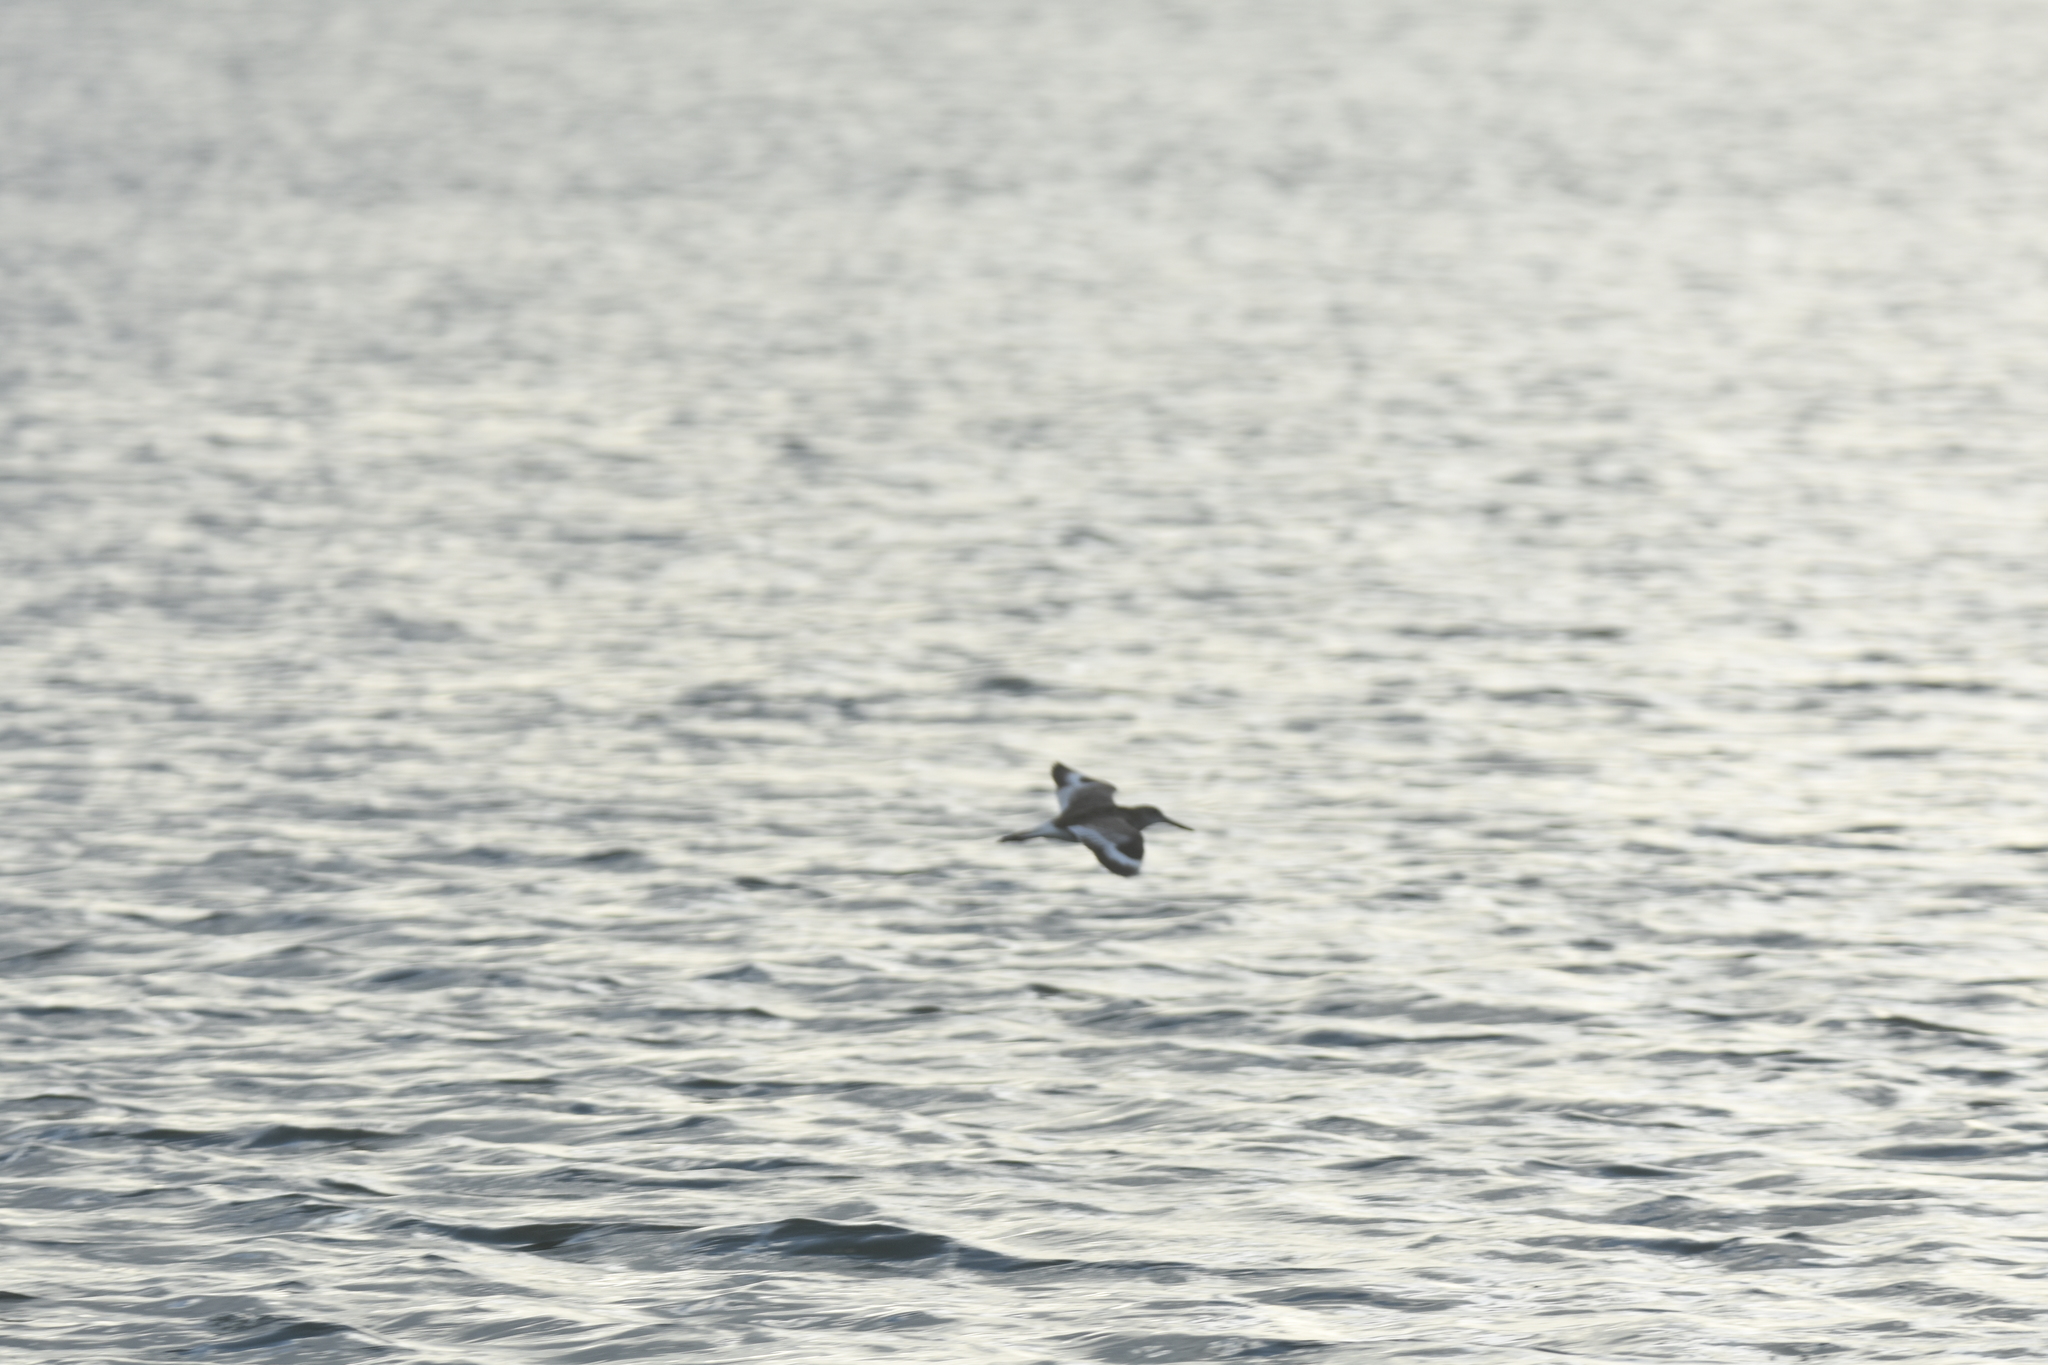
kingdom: Animalia
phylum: Chordata
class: Aves
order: Charadriiformes
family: Scolopacidae
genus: Tringa
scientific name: Tringa semipalmata
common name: Willet
